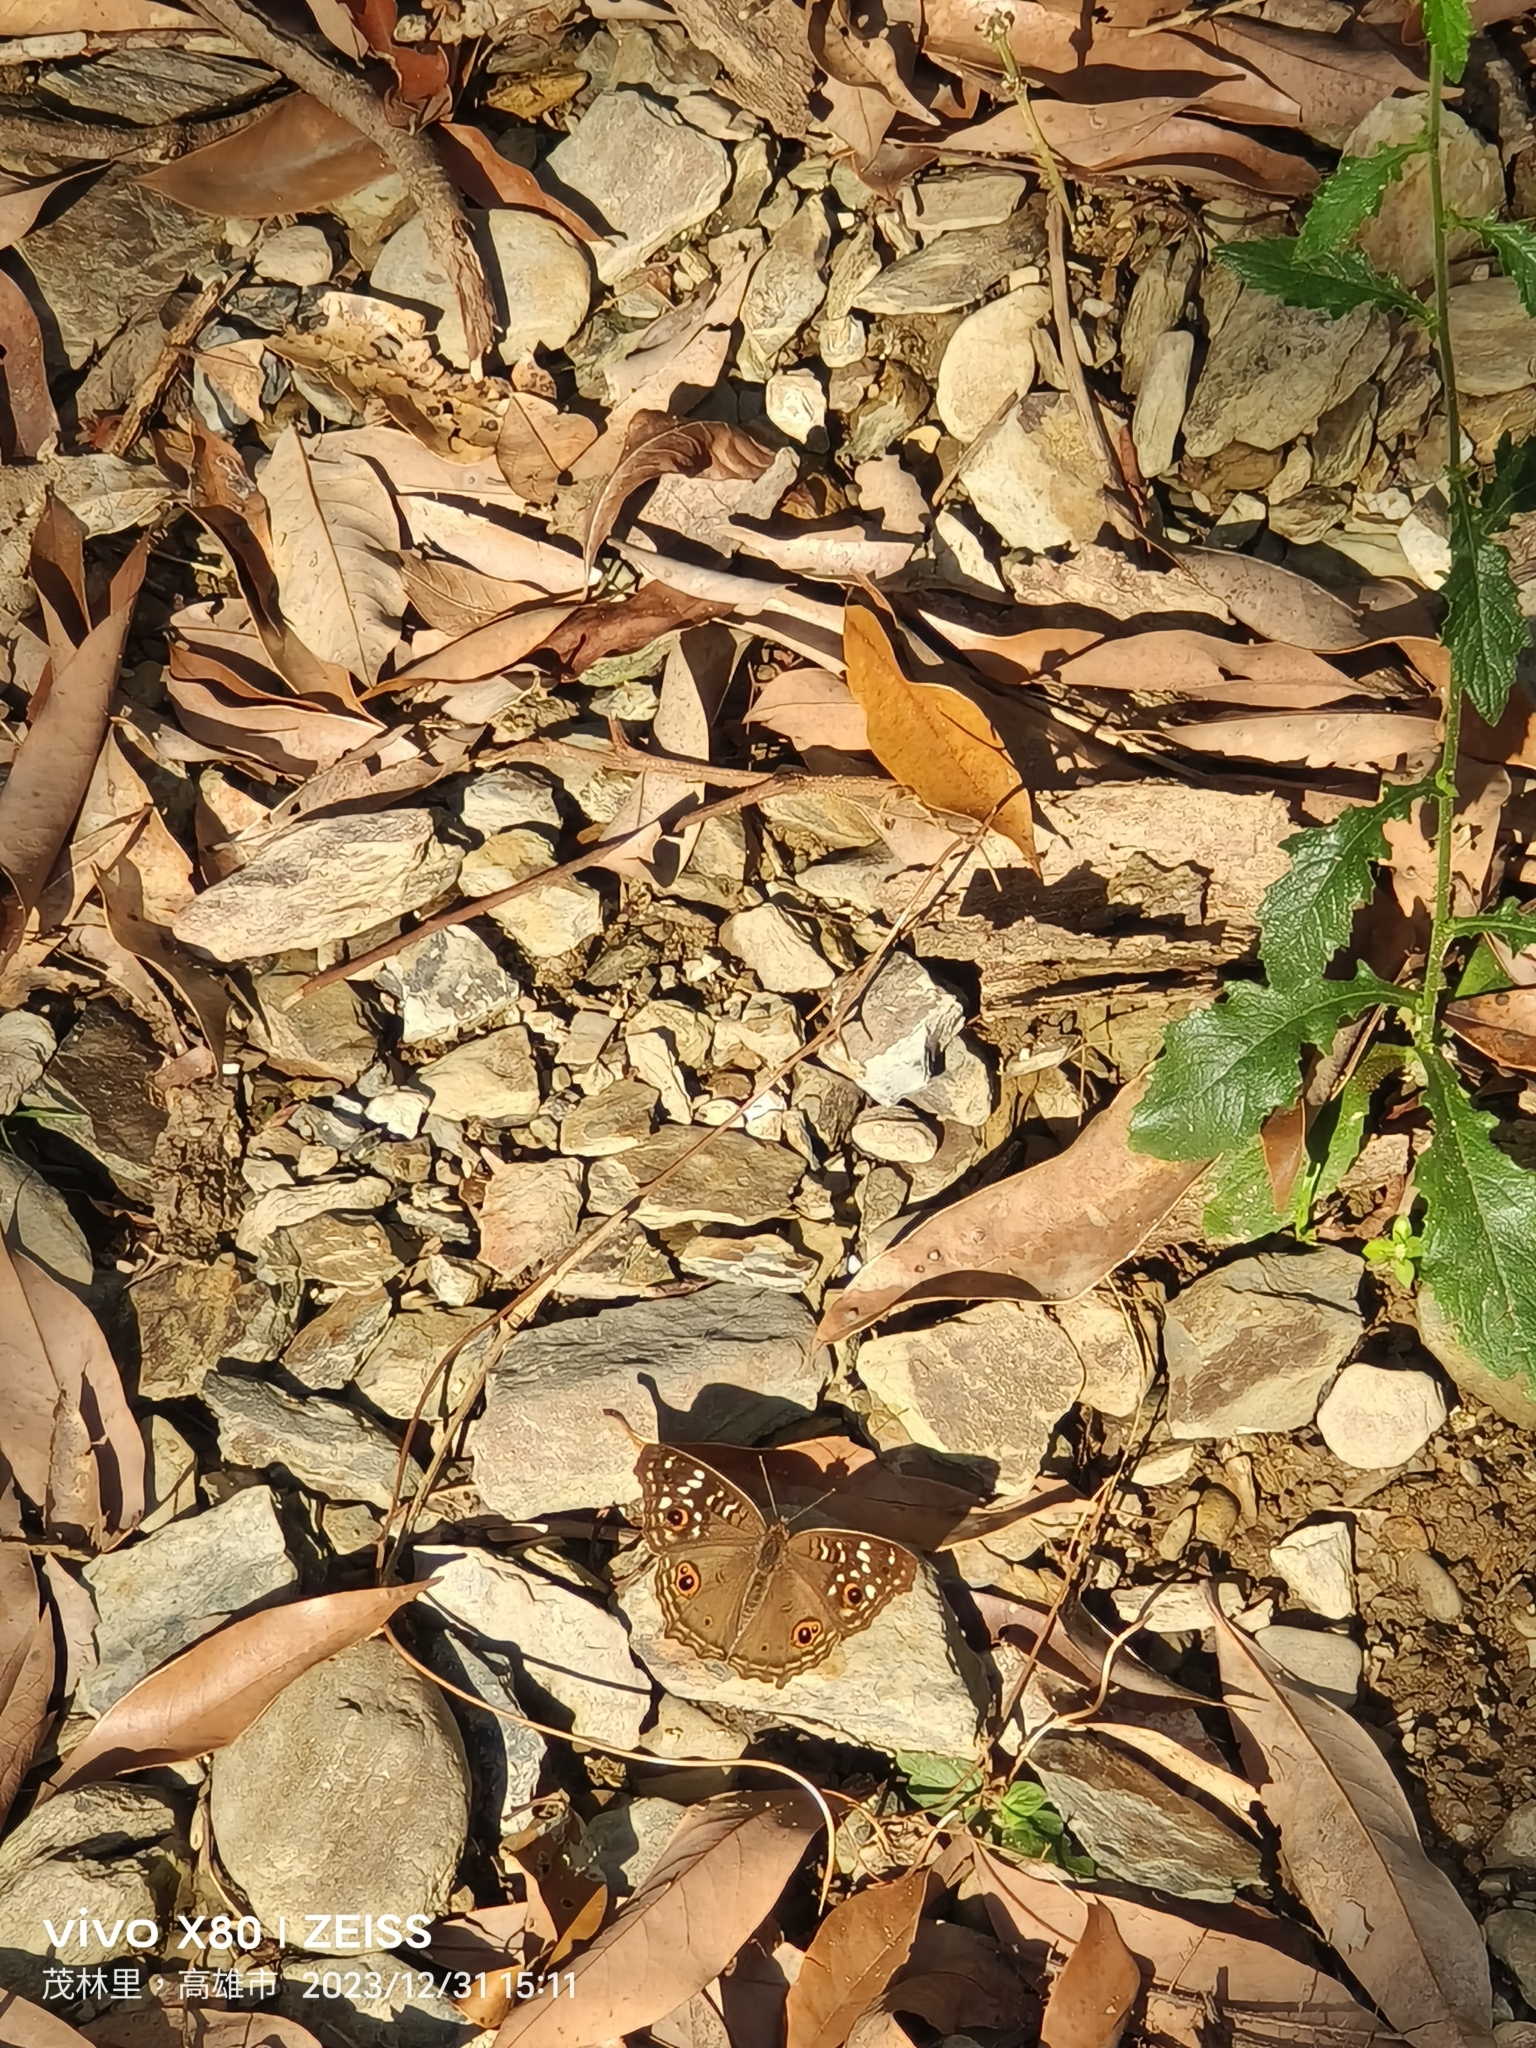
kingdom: Animalia
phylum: Arthropoda
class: Insecta
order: Lepidoptera
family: Nymphalidae
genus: Junonia
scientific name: Junonia lemonias
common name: Lemon pansy
